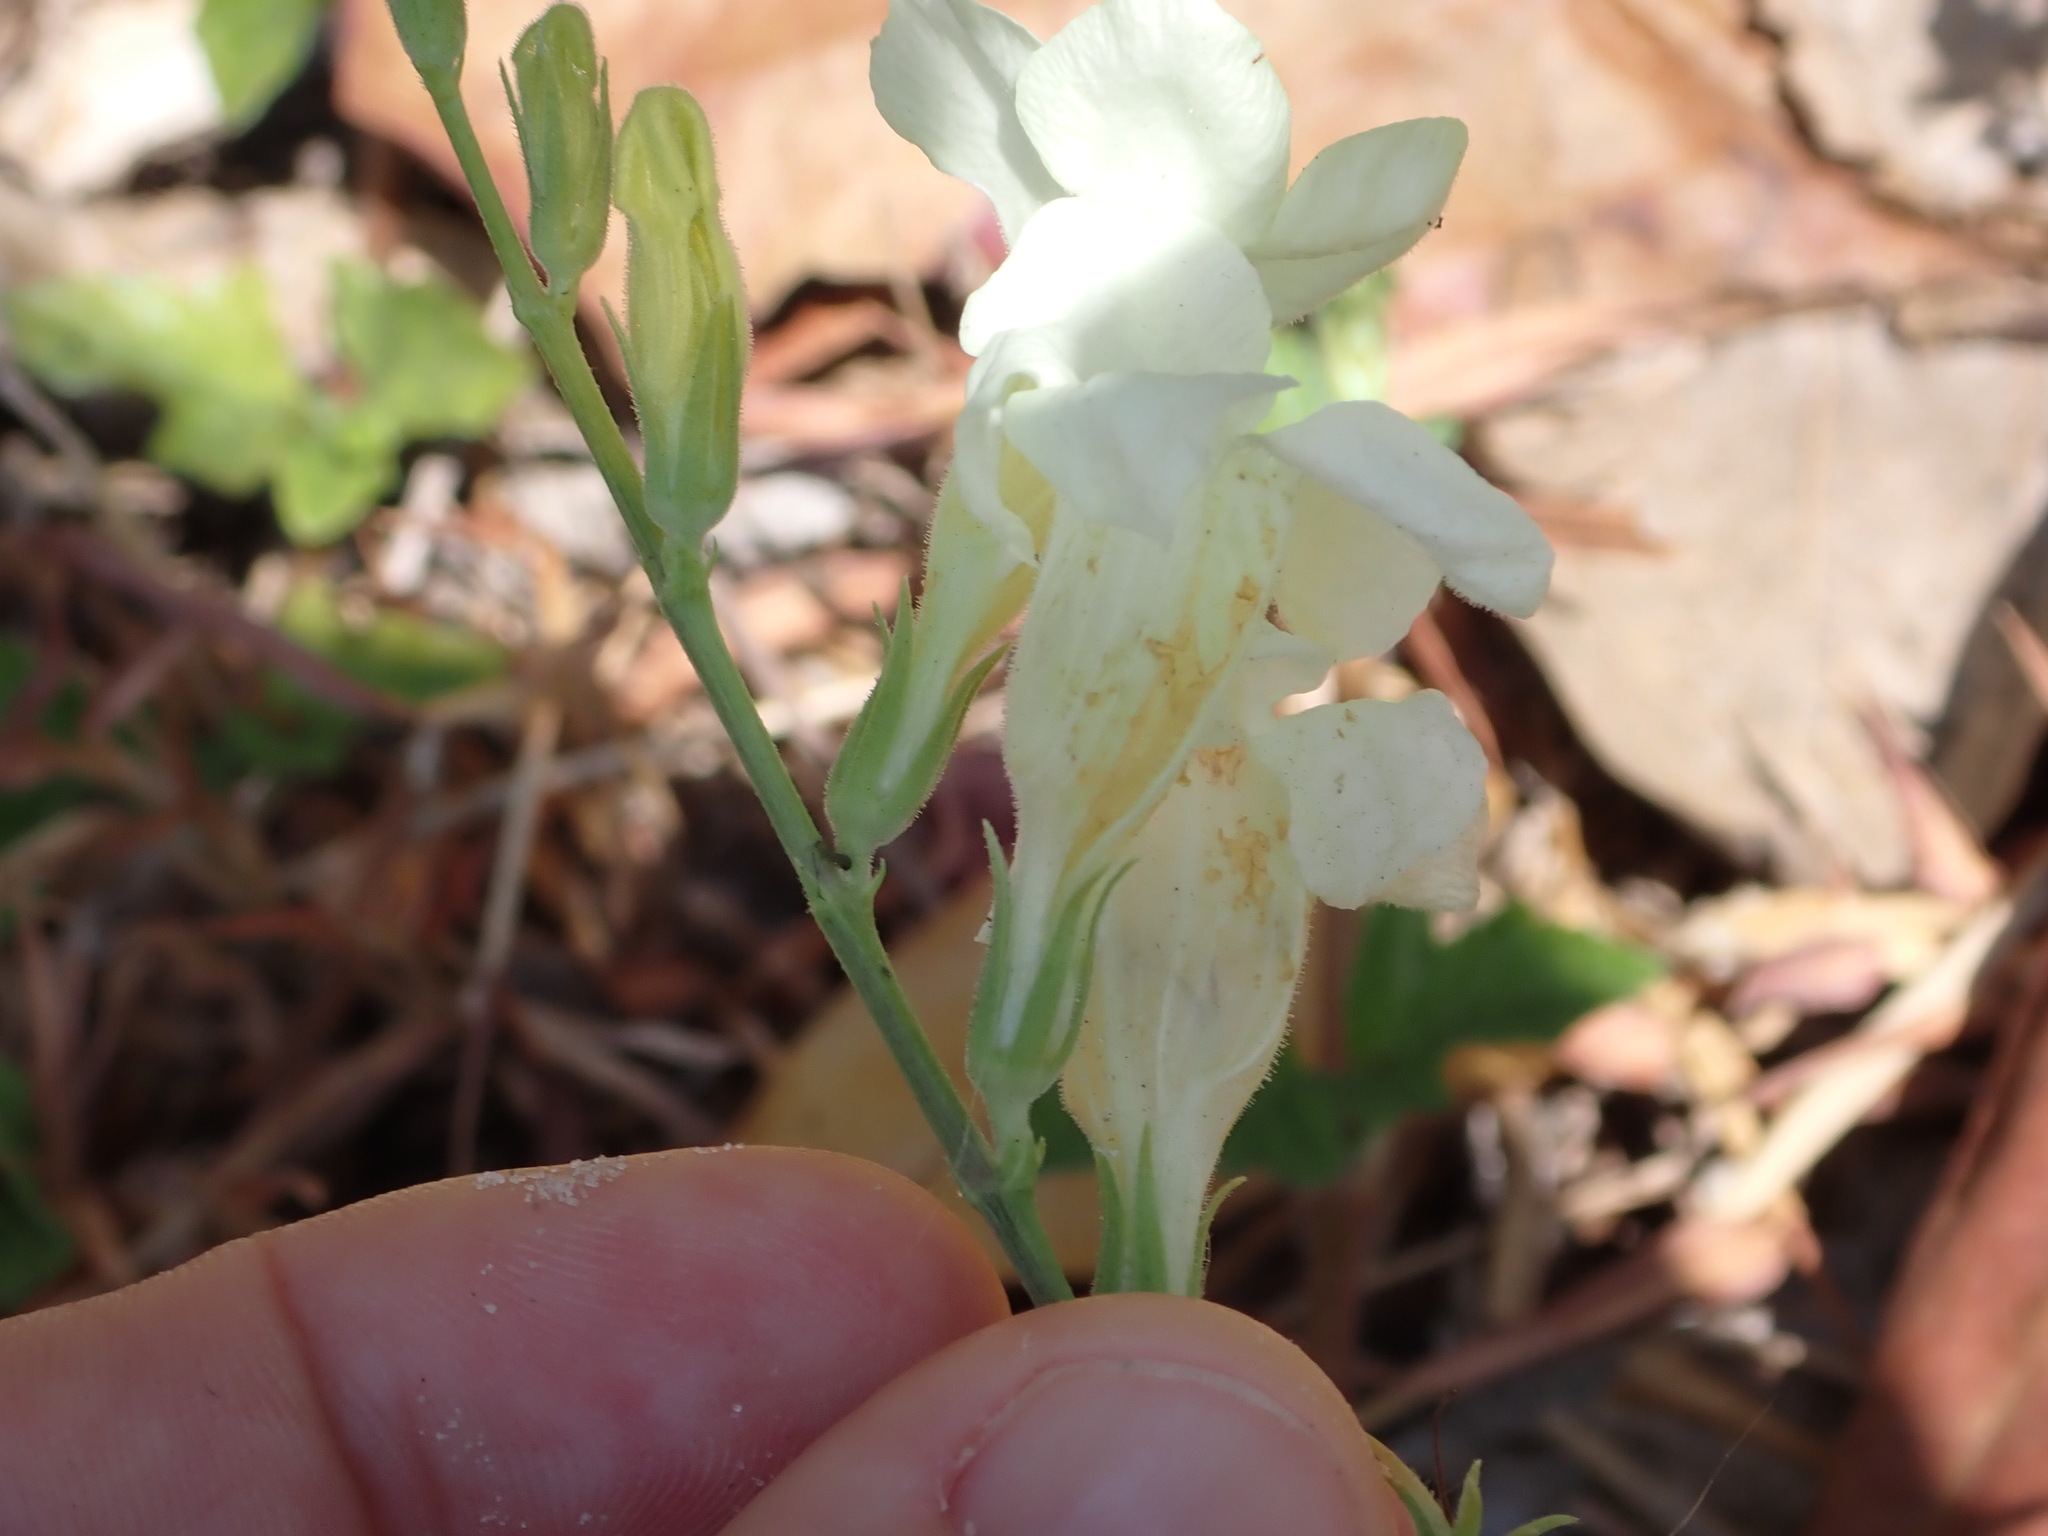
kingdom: Plantae
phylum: Tracheophyta
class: Magnoliopsida
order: Lamiales
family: Acanthaceae
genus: Asystasia
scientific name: Asystasia gangetica
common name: Chinese violet
